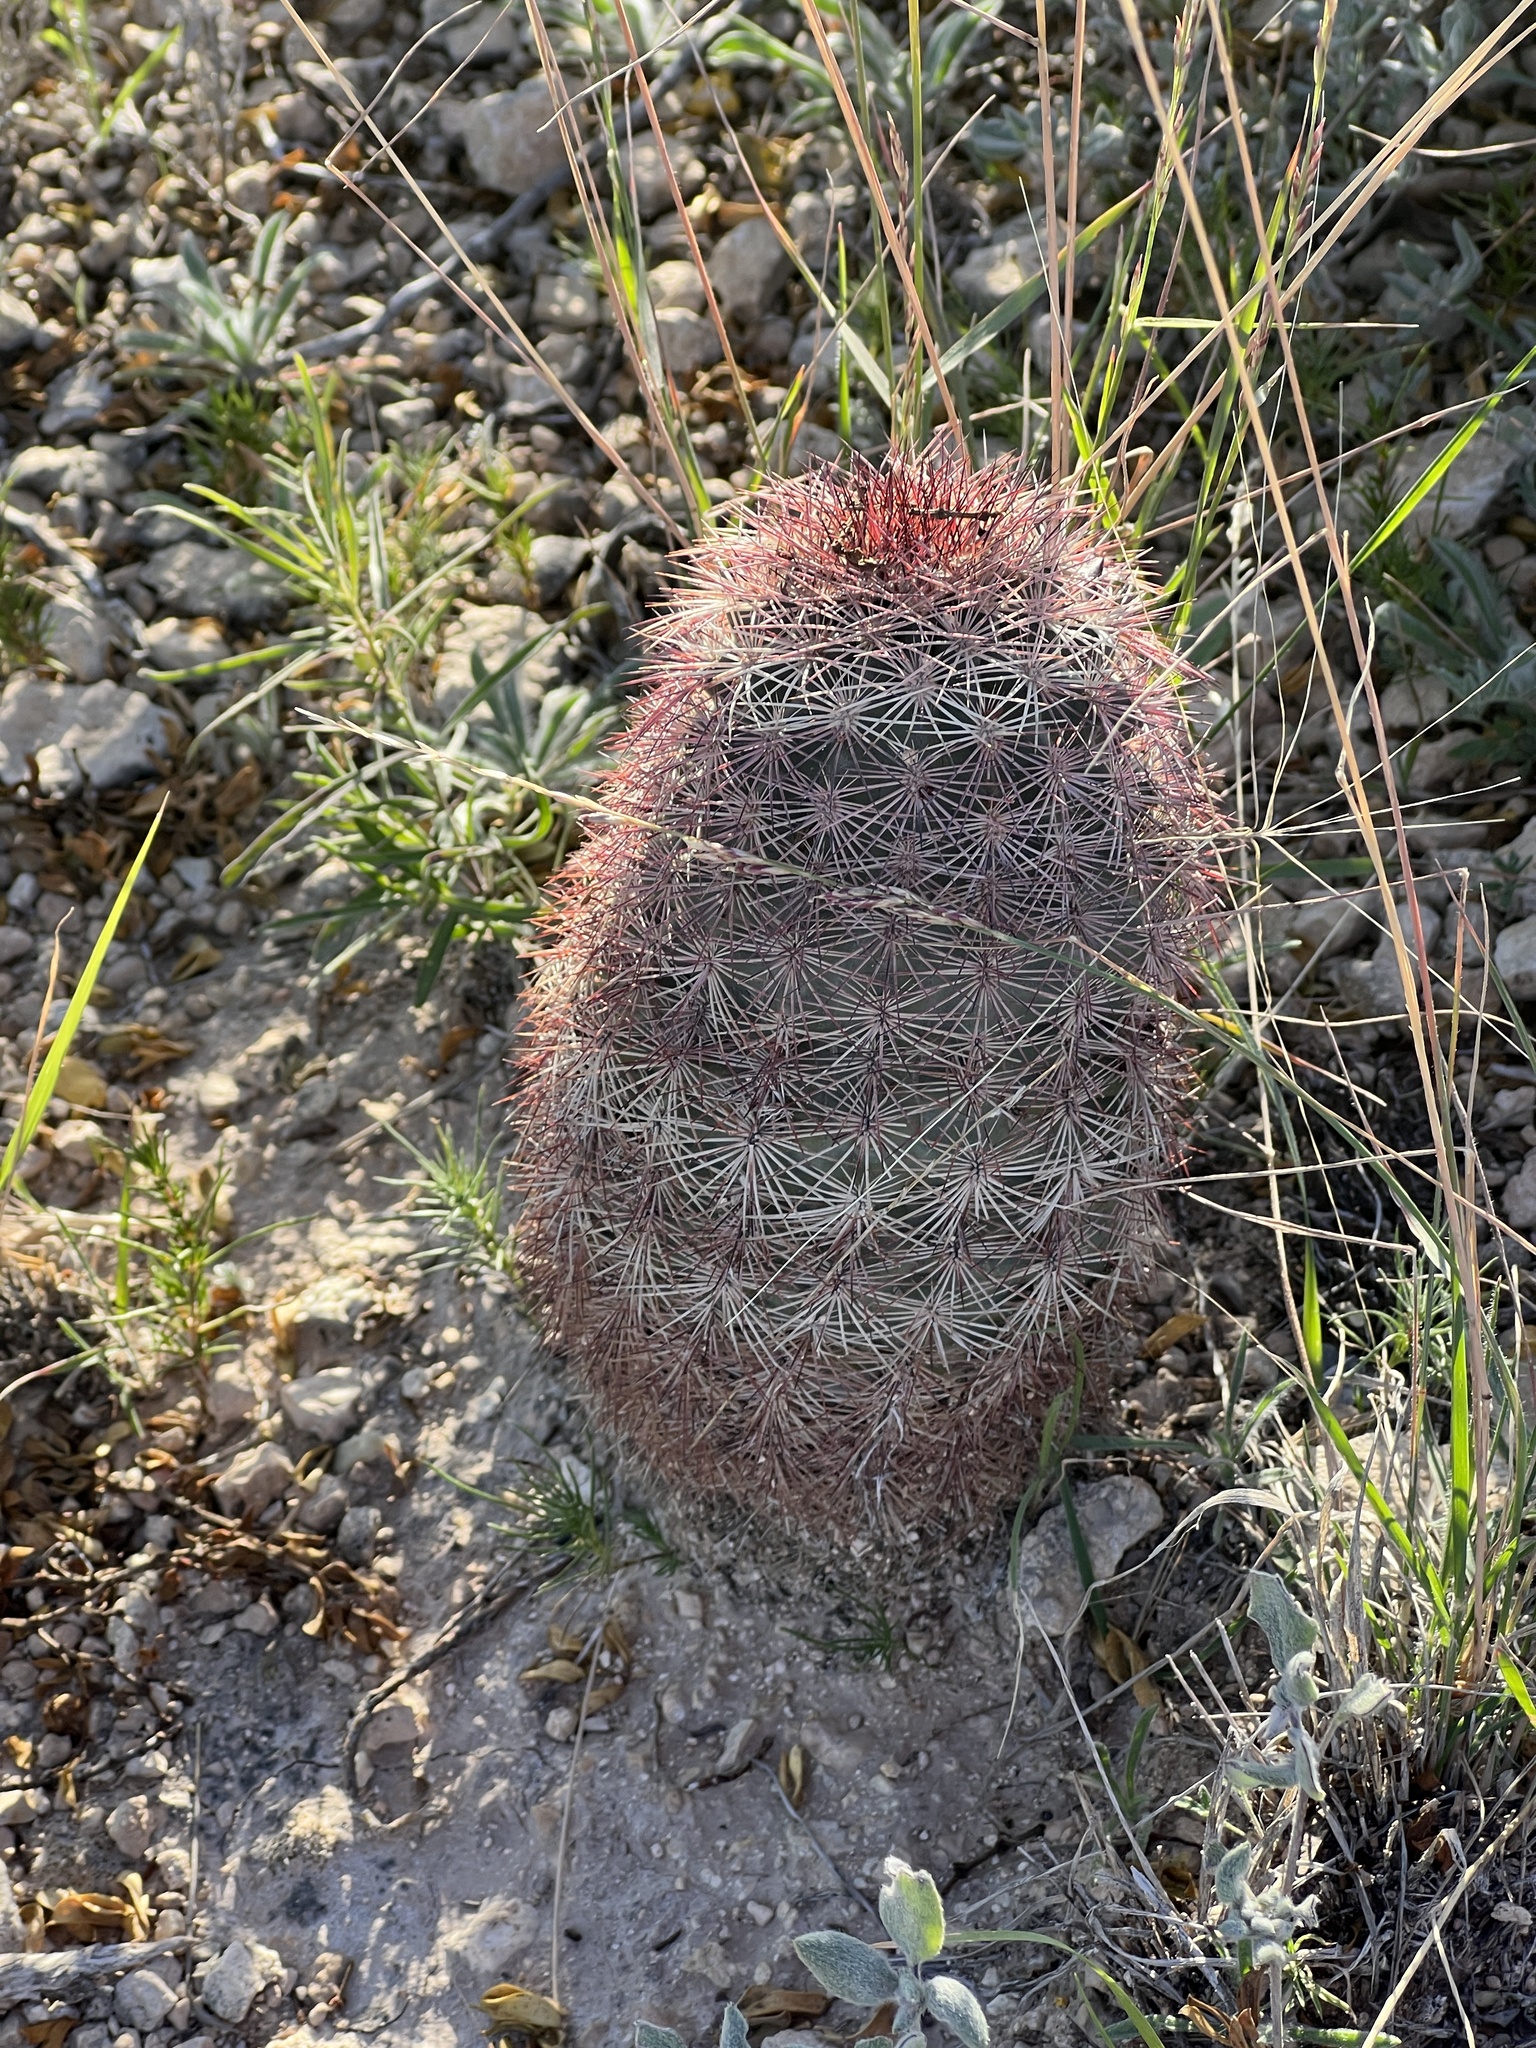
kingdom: Plantae
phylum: Tracheophyta
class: Magnoliopsida
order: Caryophyllales
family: Cactaceae
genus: Echinocereus
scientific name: Echinocereus dasyacanthus
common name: Spiny hedgehog cactus
